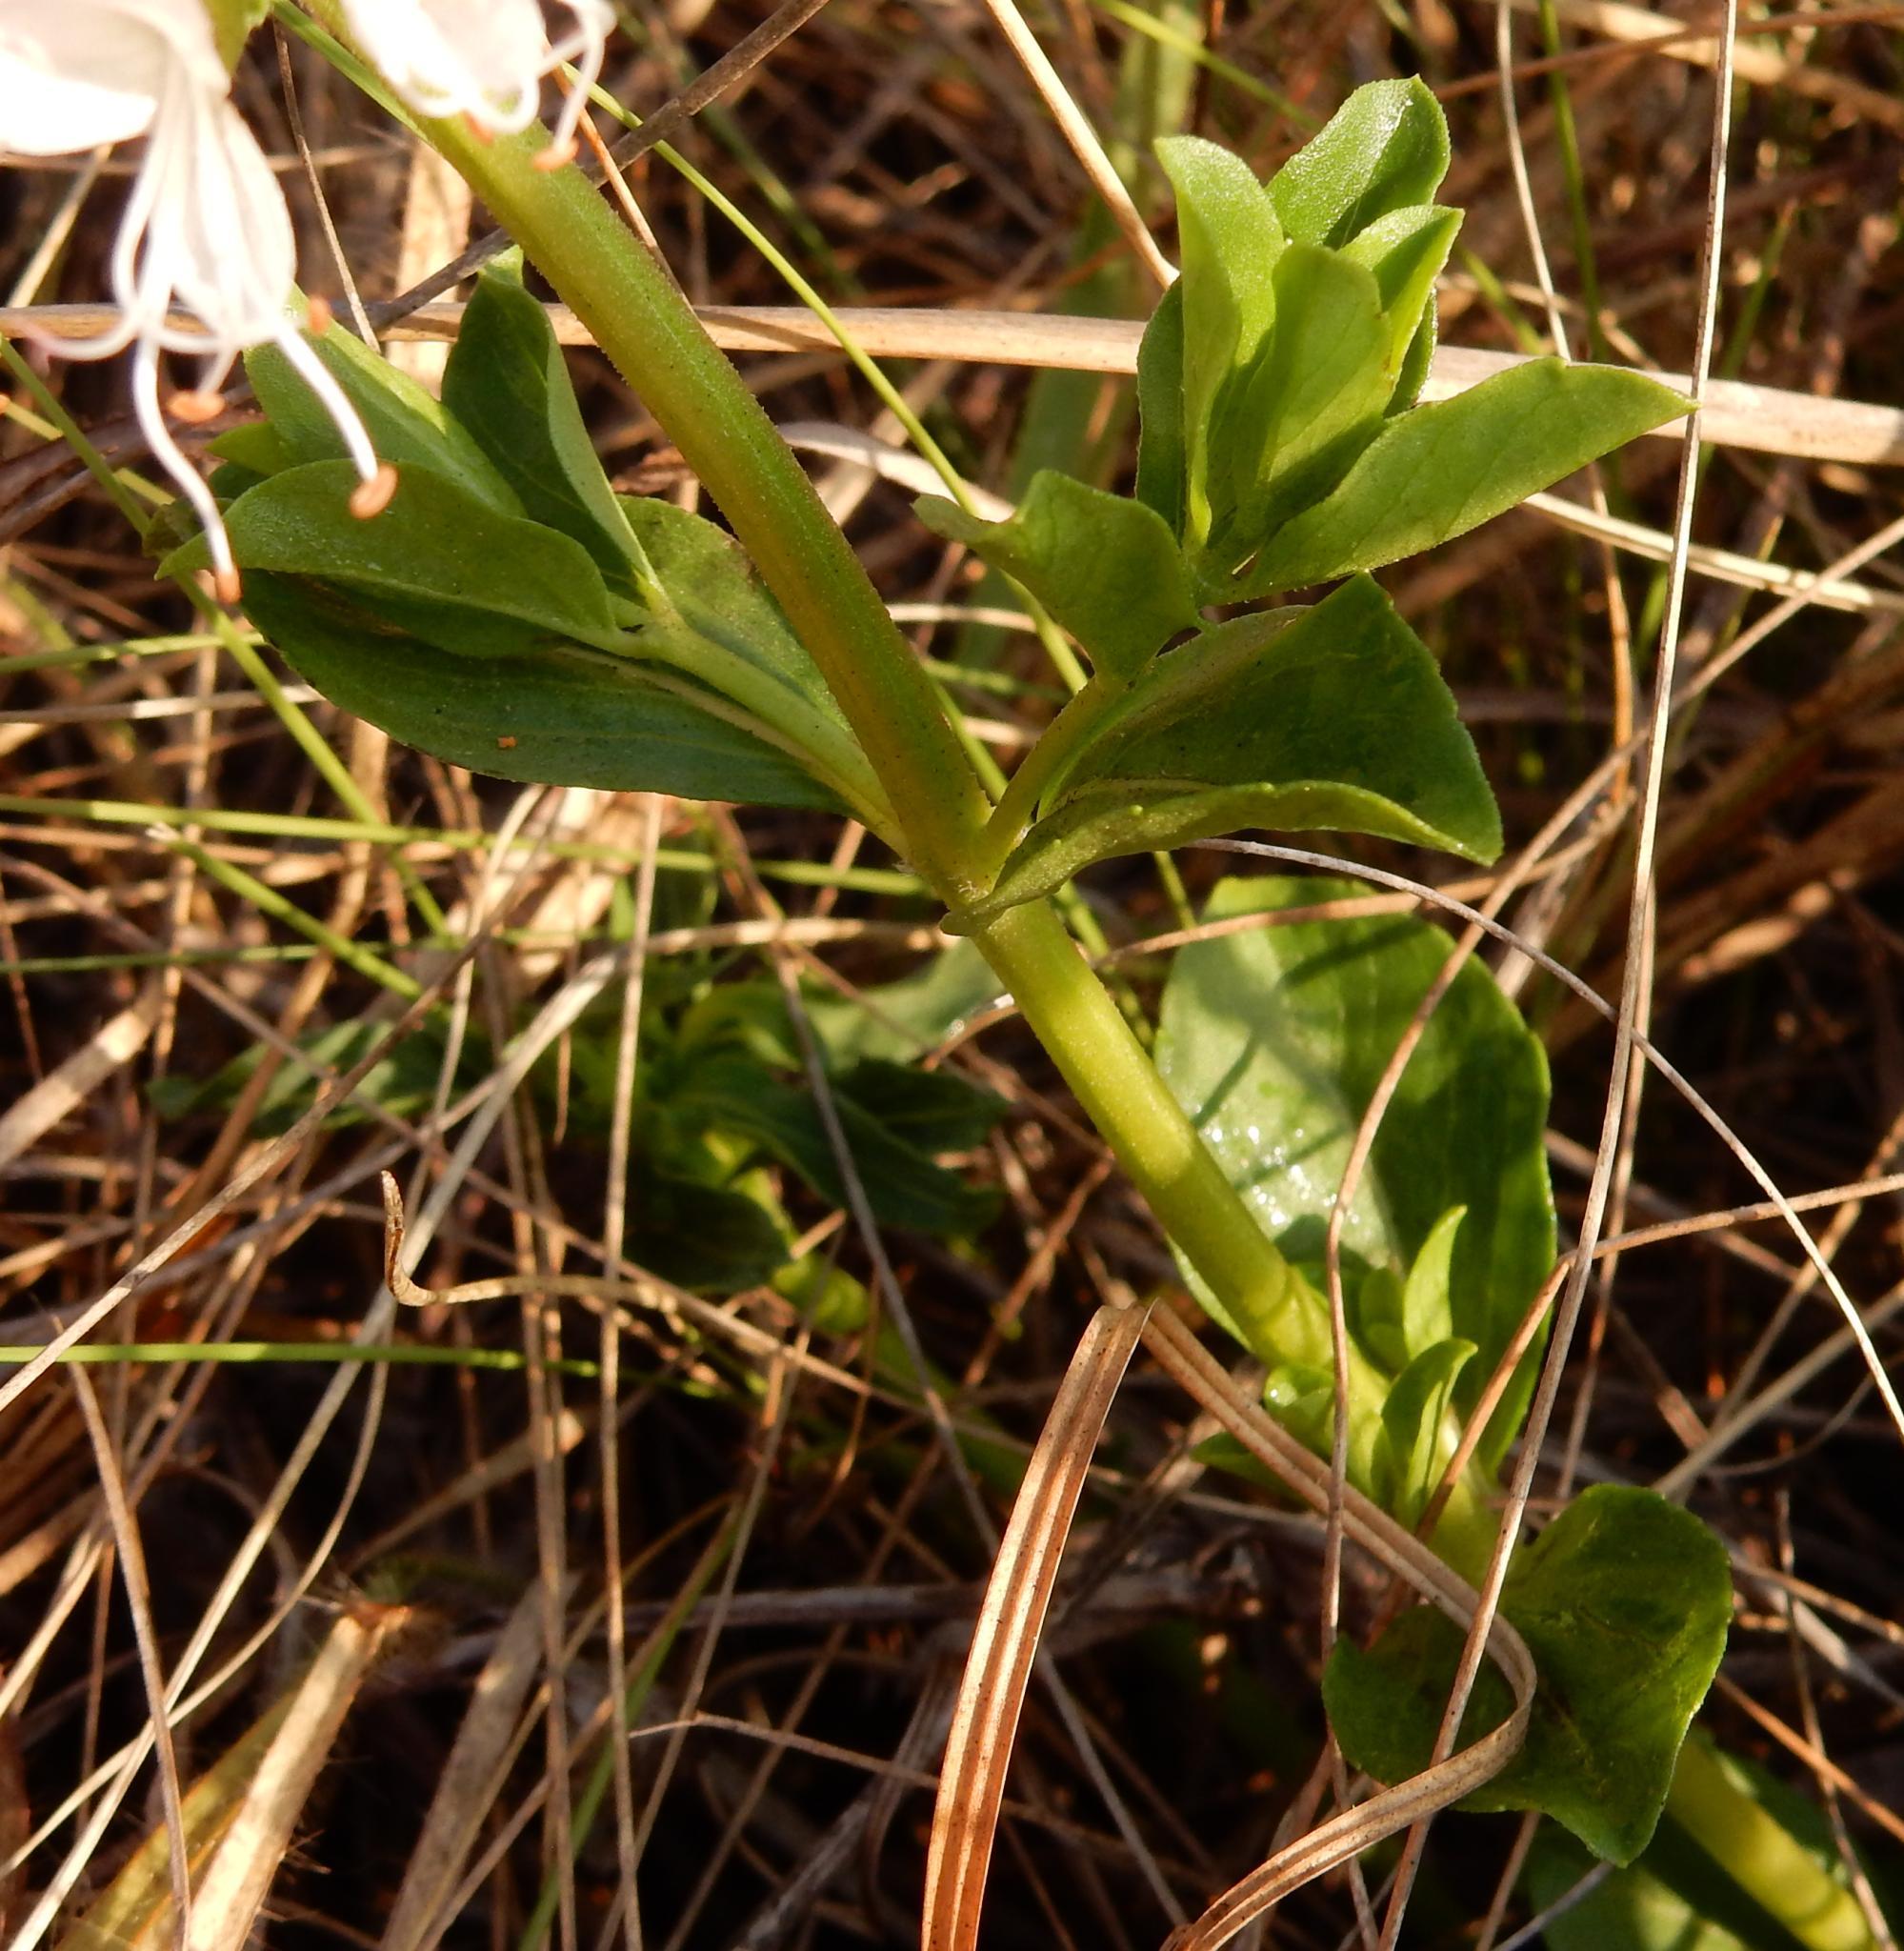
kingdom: Plantae
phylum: Tracheophyta
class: Magnoliopsida
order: Lamiales
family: Lamiaceae
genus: Ocimum
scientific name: Ocimum obovatum
